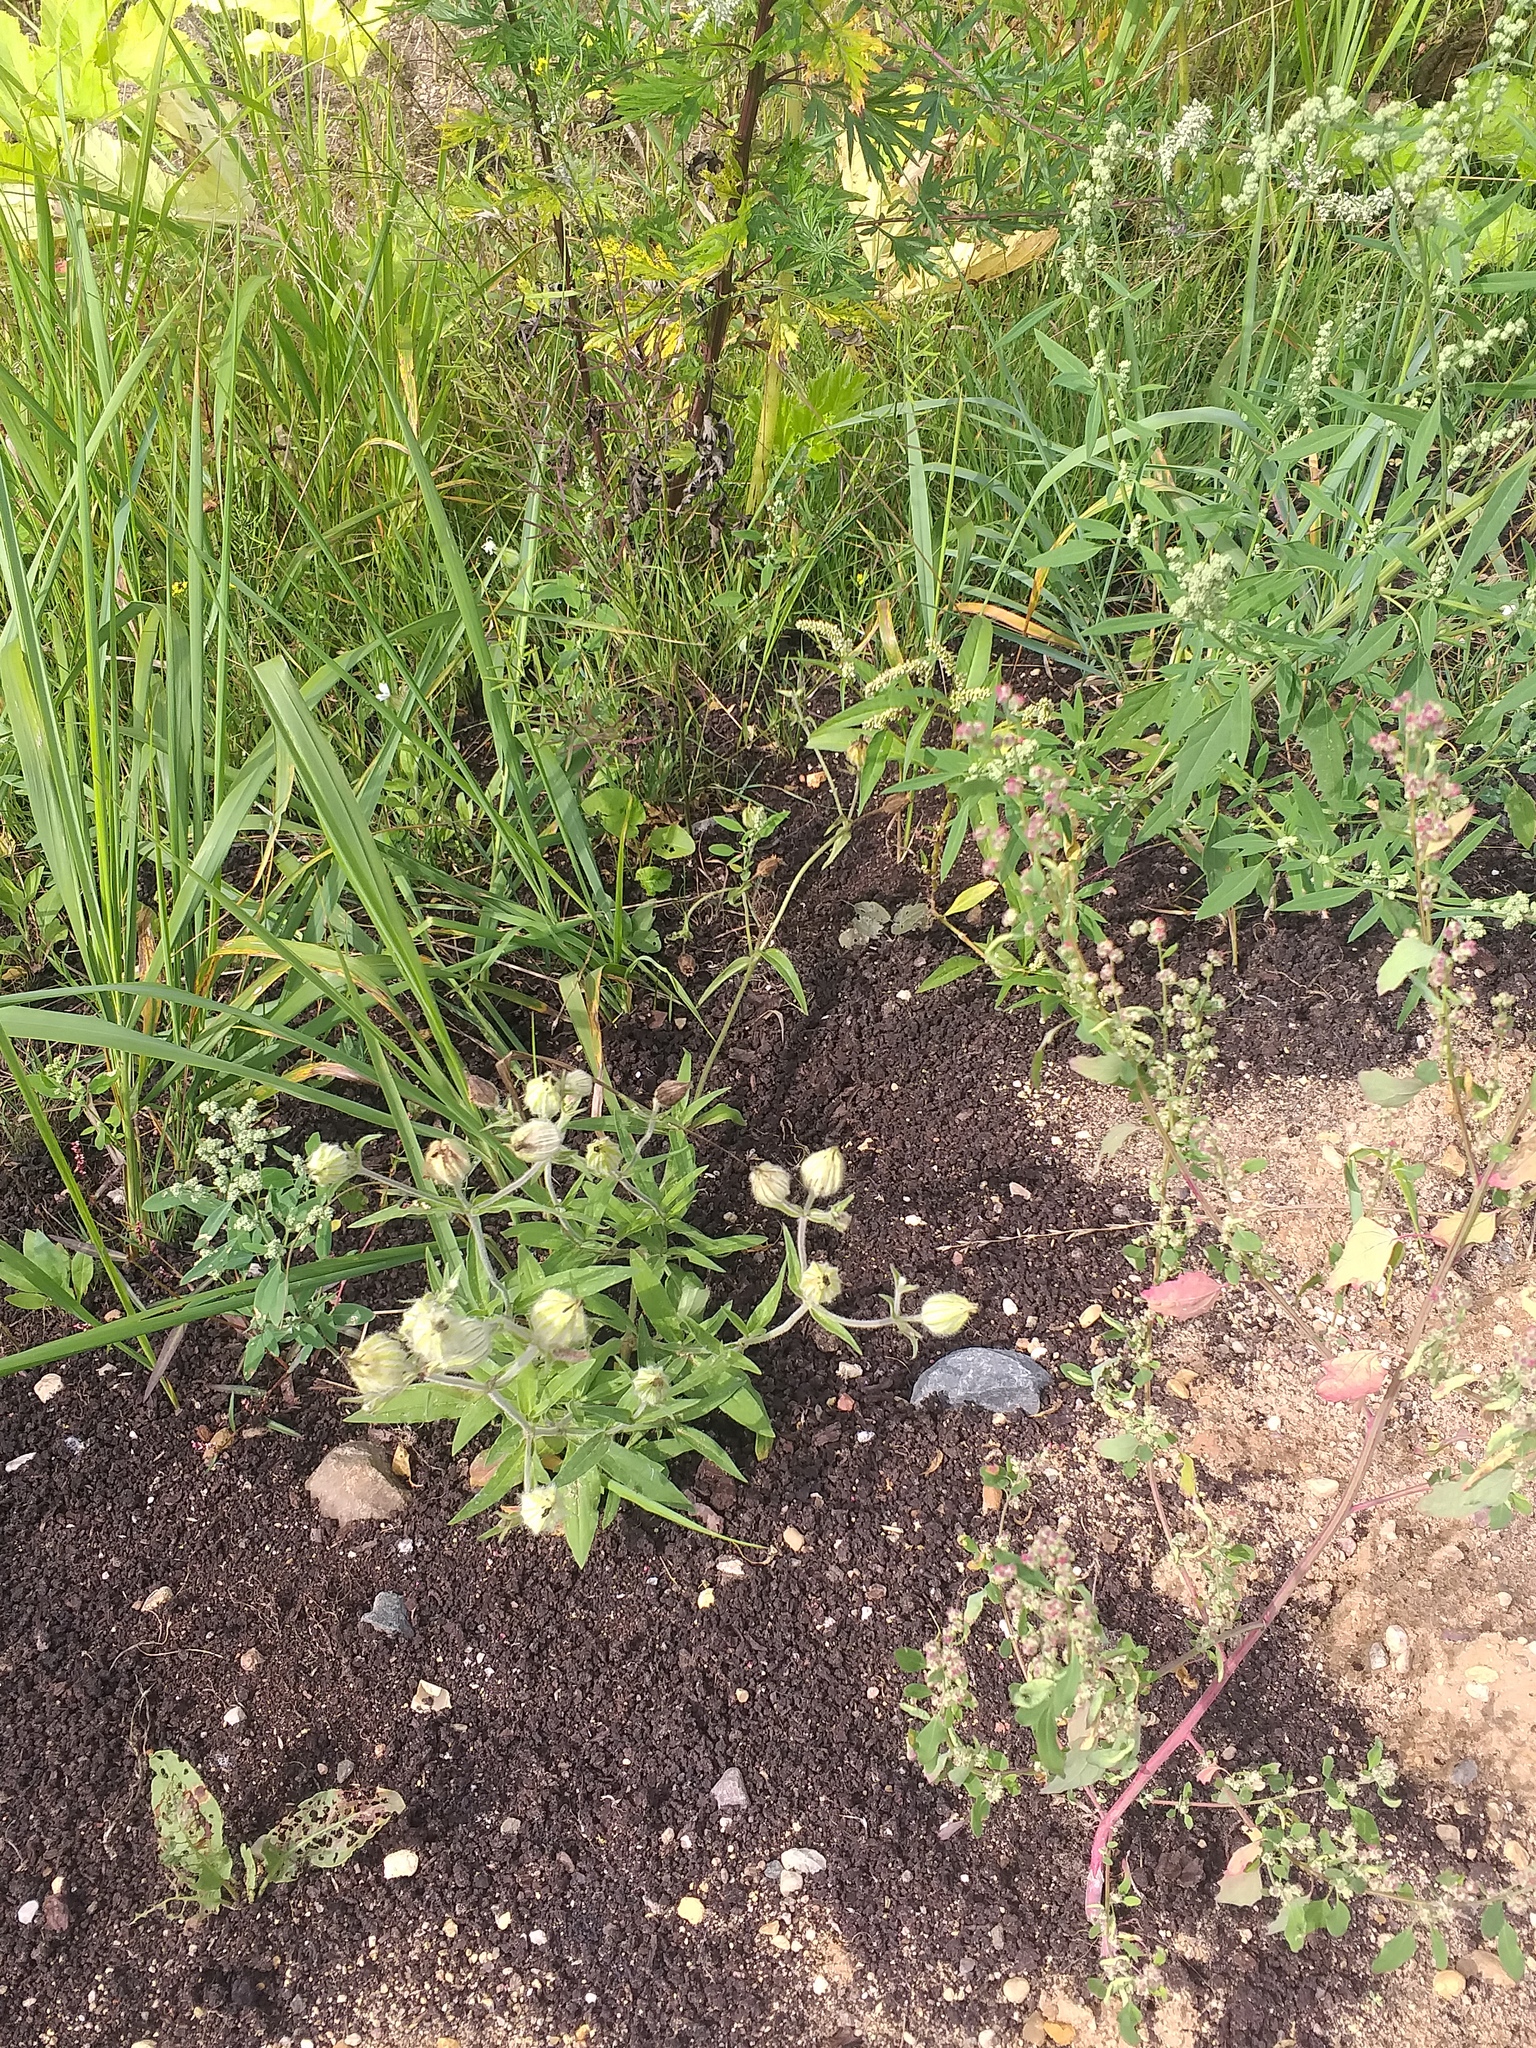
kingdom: Plantae
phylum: Tracheophyta
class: Magnoliopsida
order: Caryophyllales
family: Caryophyllaceae
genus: Silene
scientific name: Silene latifolia
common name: White campion
